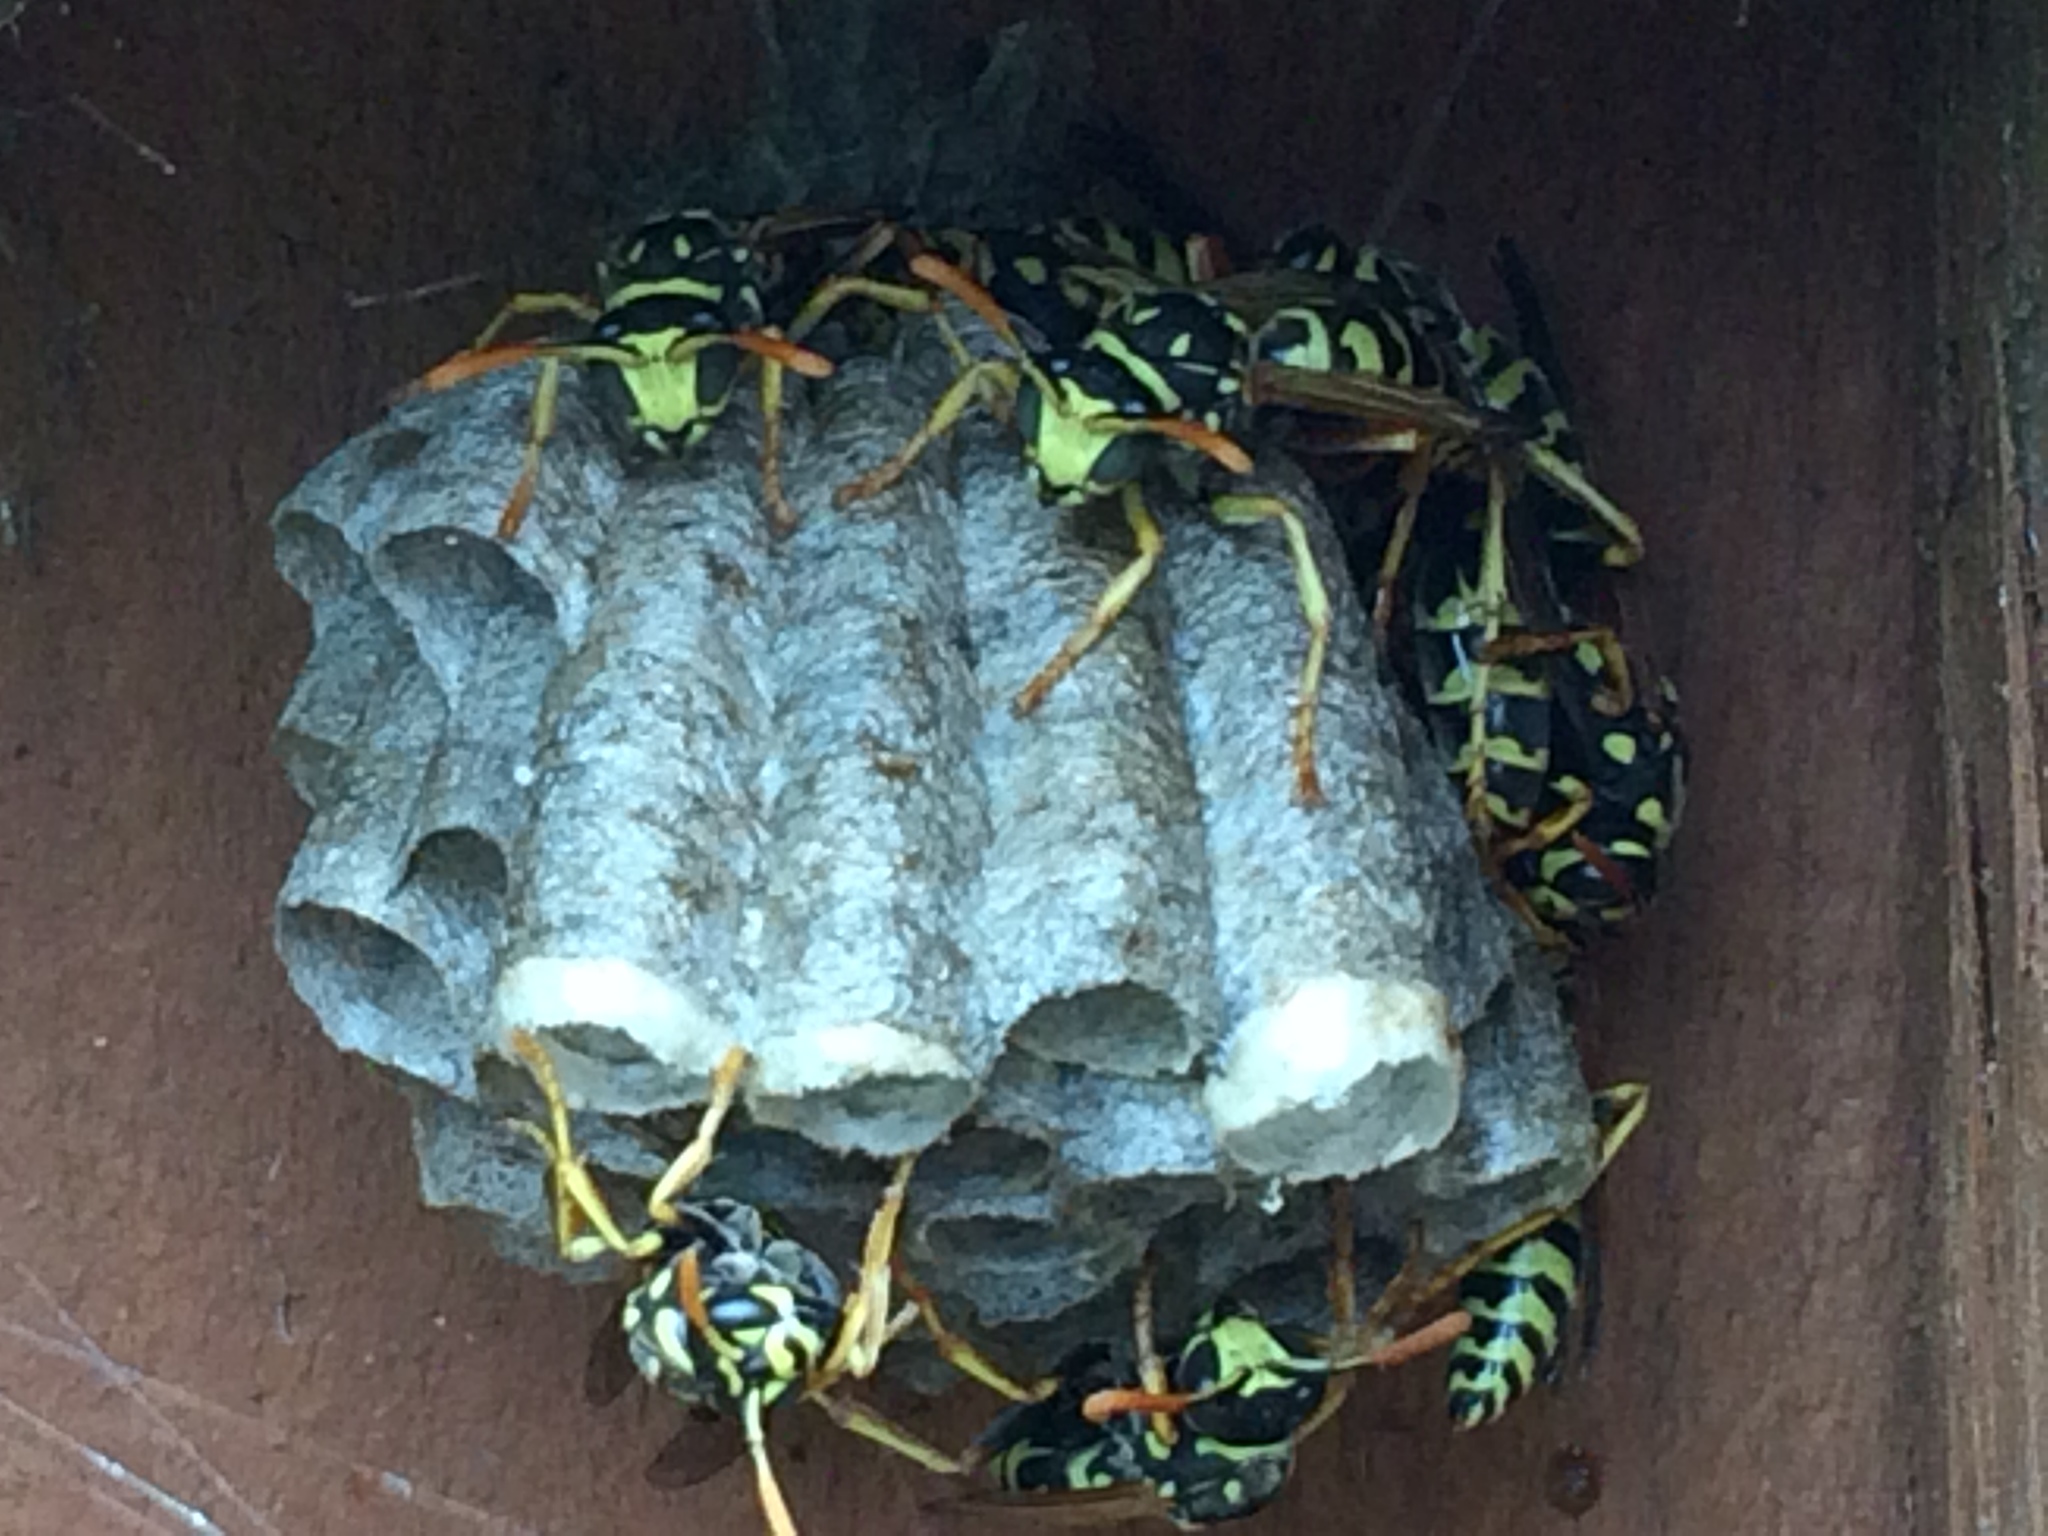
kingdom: Animalia
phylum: Arthropoda
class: Insecta
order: Hymenoptera
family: Eumenidae
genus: Polistes
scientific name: Polistes dominula
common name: Paper wasp
